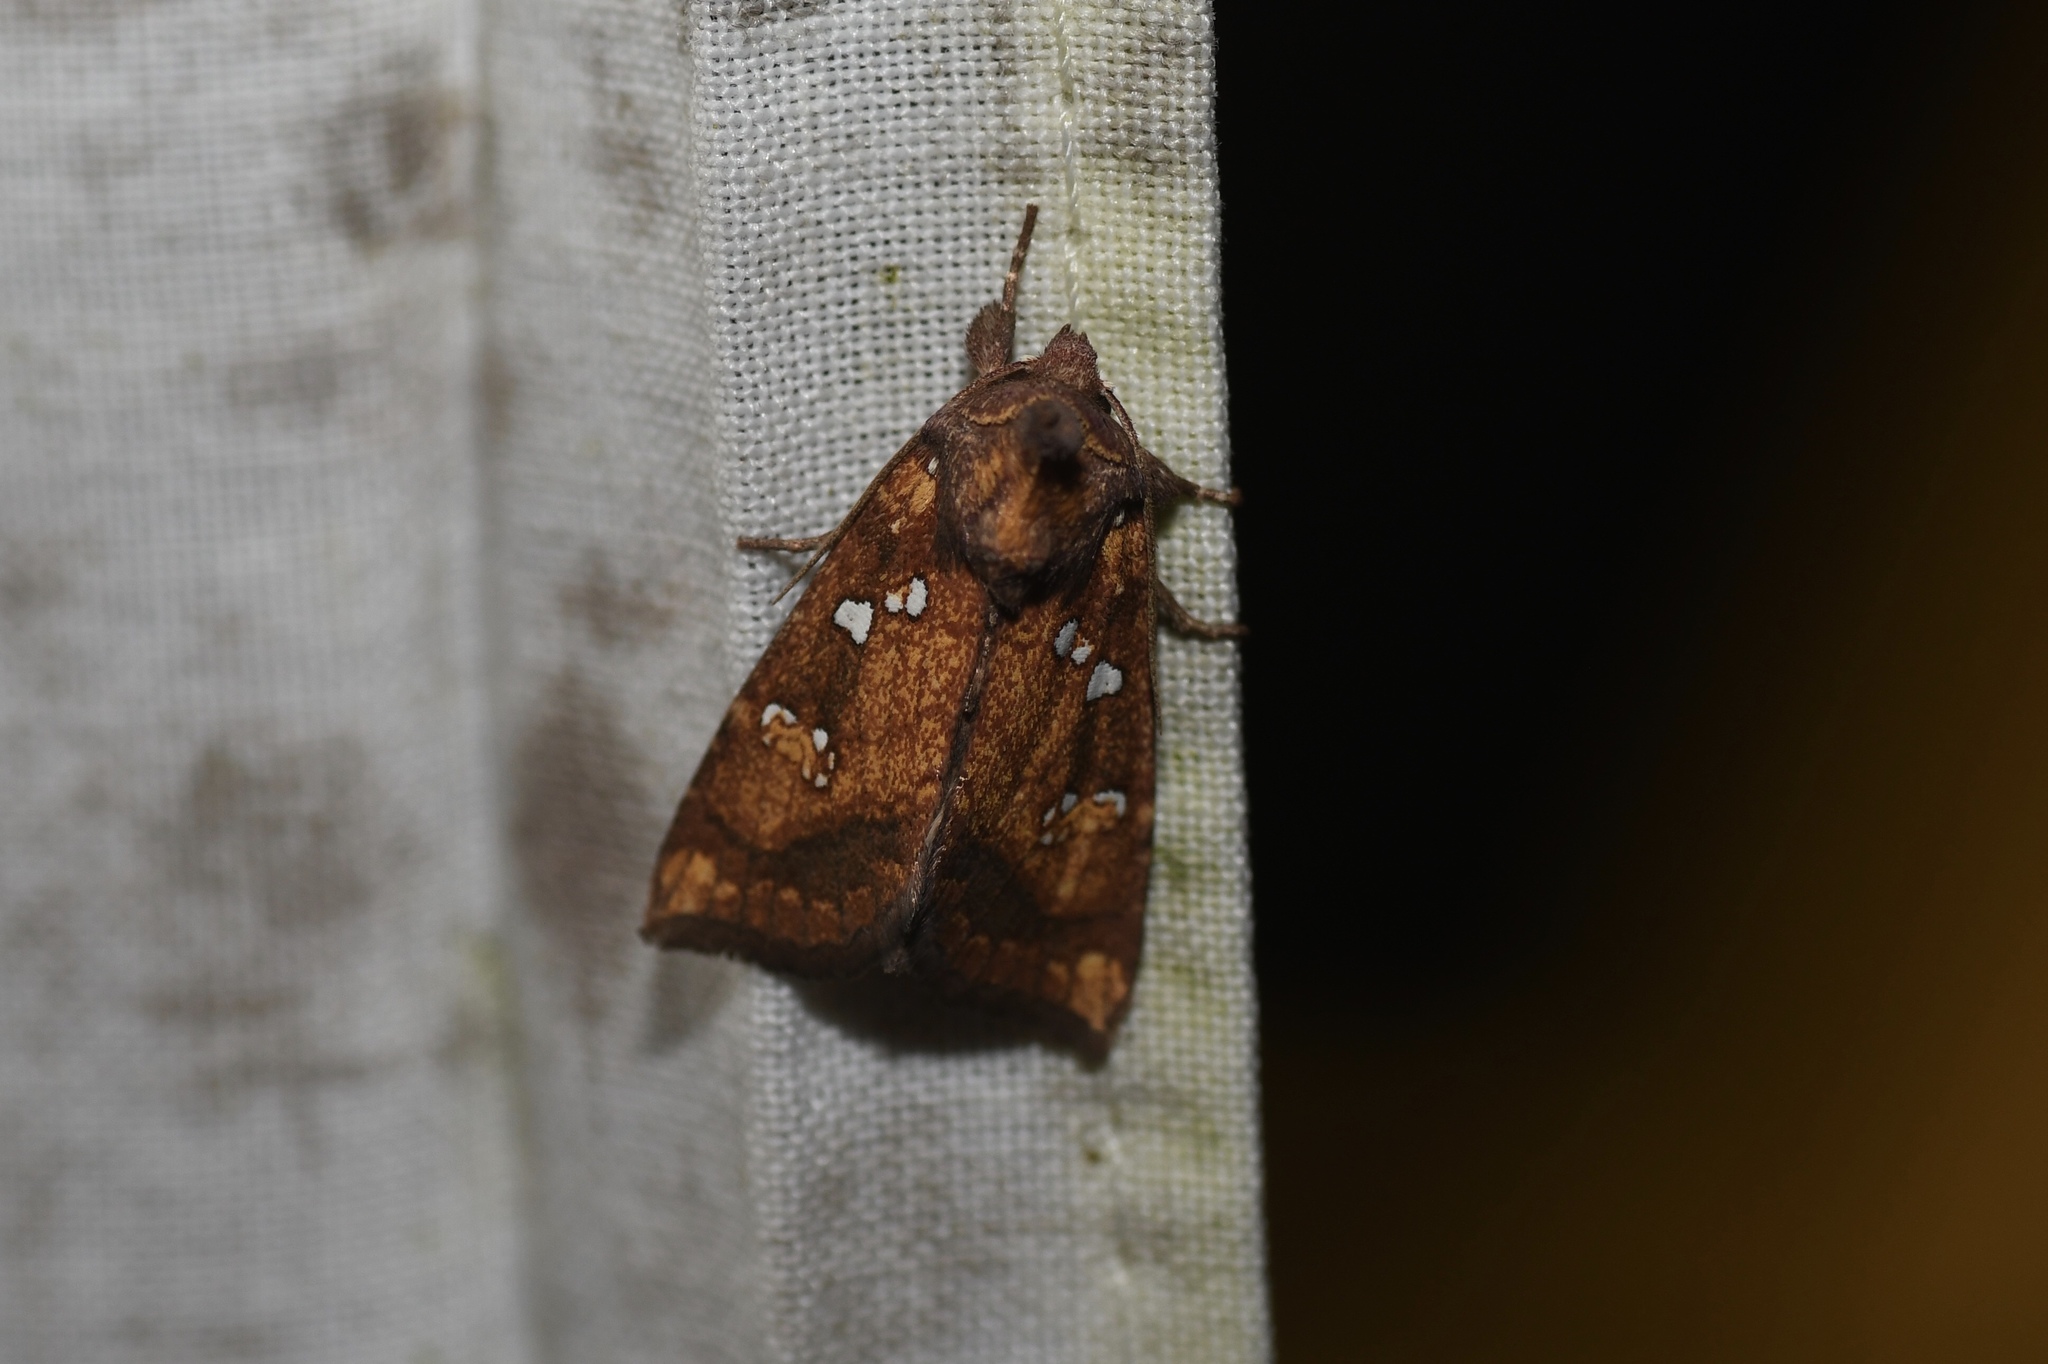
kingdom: Animalia
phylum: Arthropoda
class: Insecta
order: Lepidoptera
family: Noctuidae
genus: Papaipema
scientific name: Papaipema arctivorens
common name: Northern burdock borer moth
